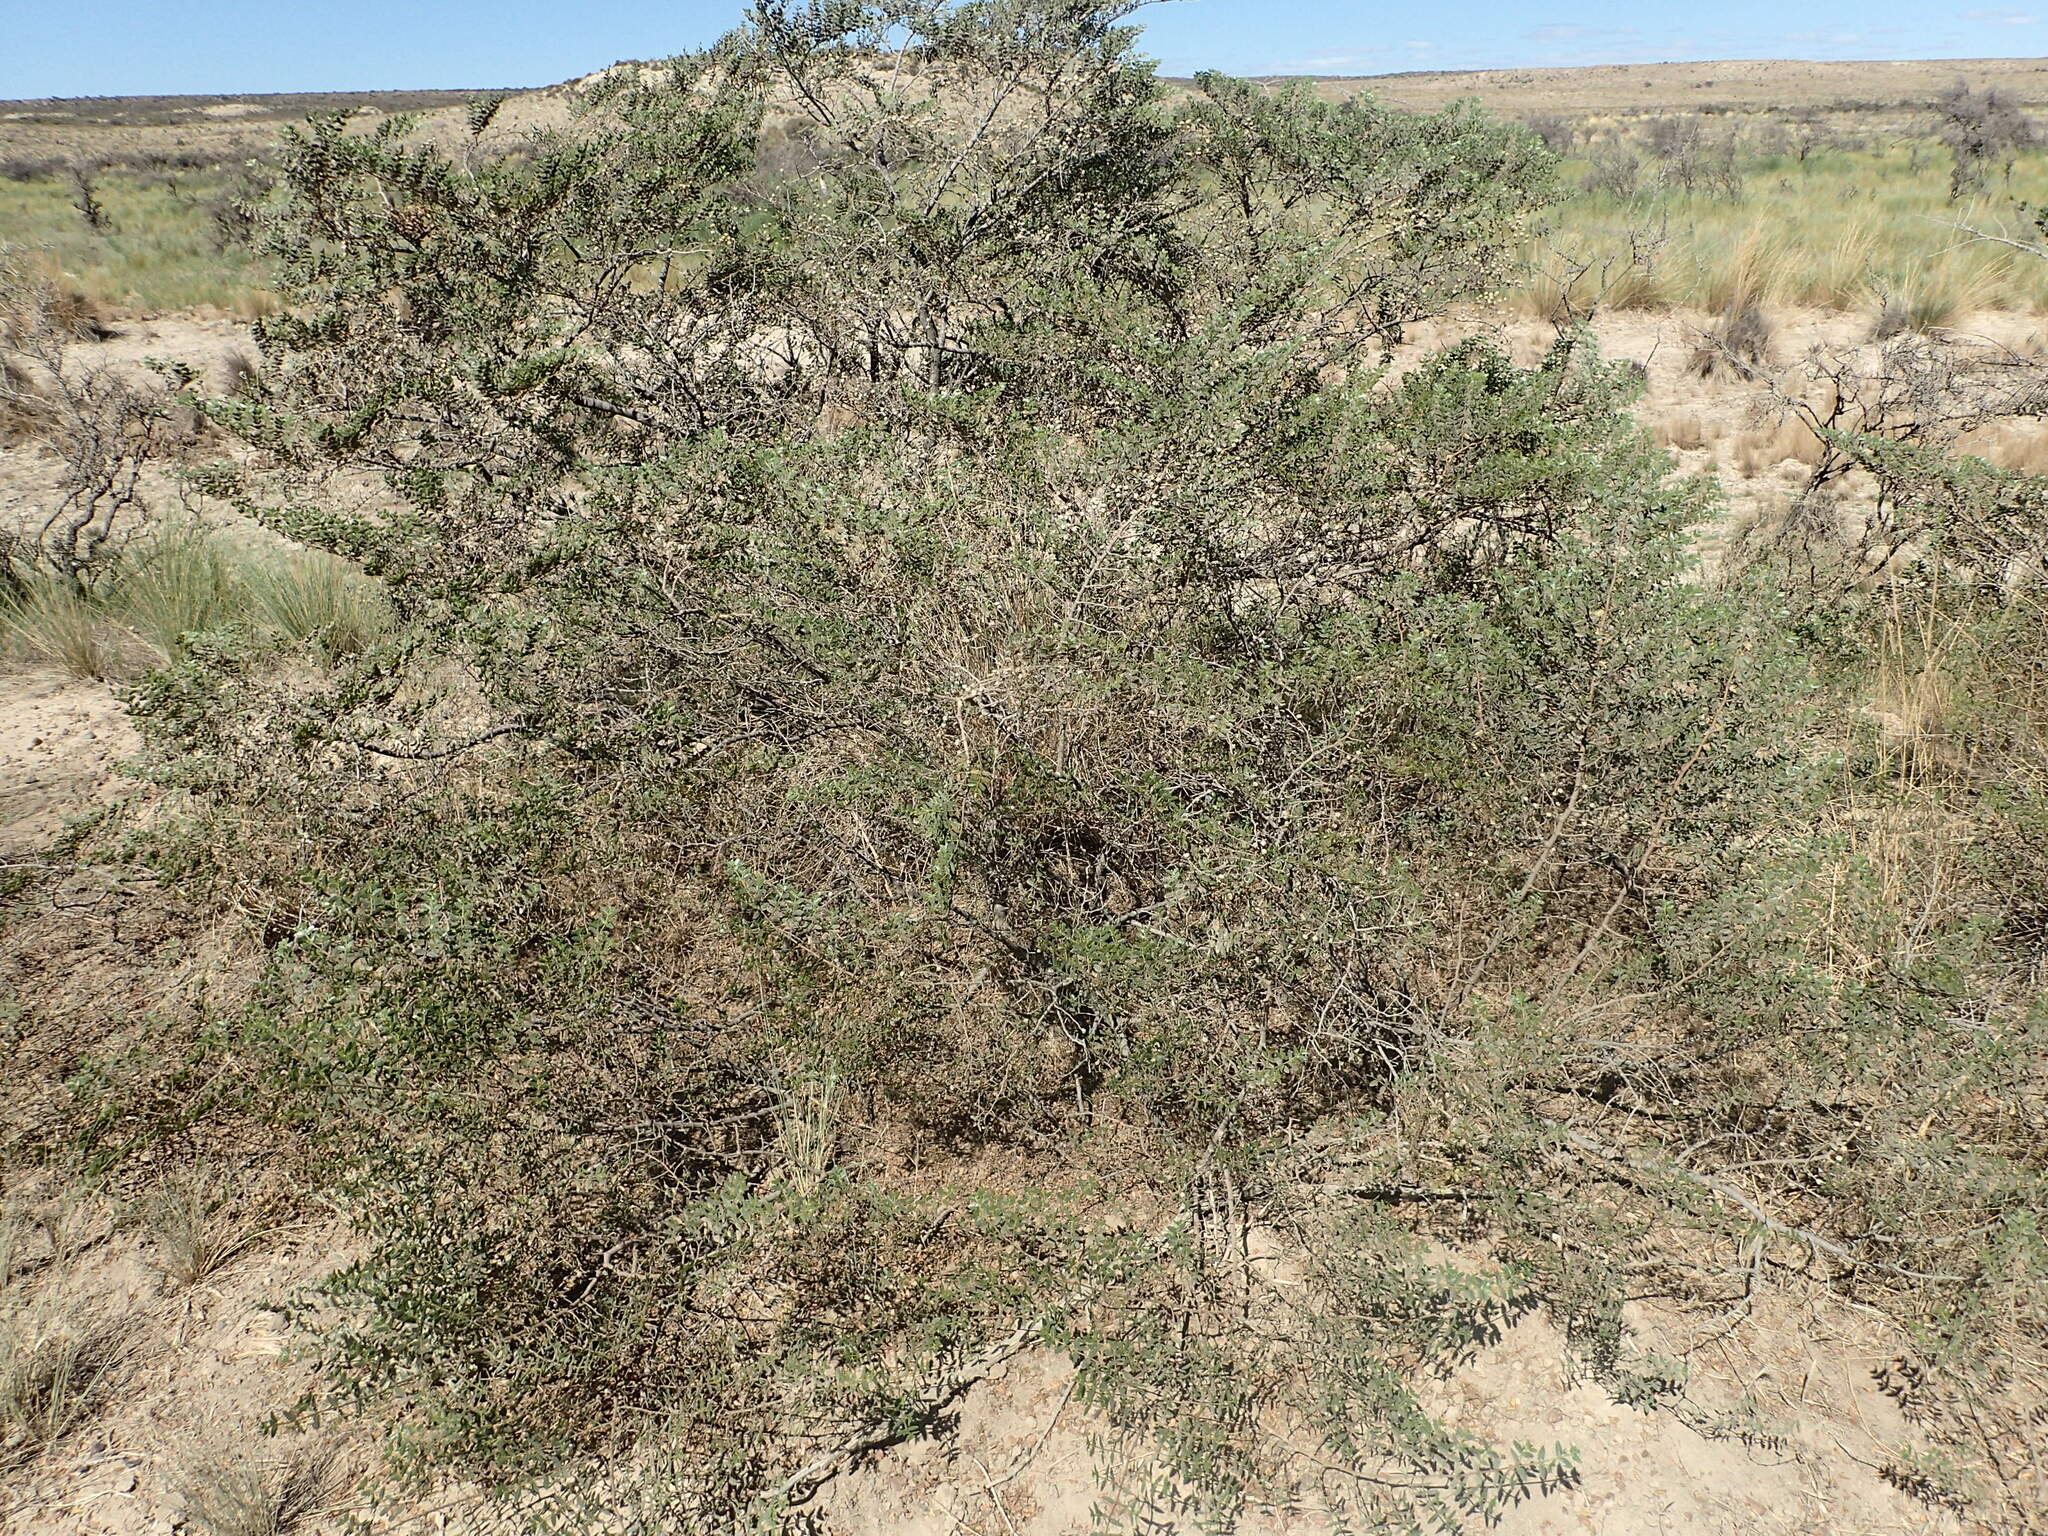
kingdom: Plantae
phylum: Tracheophyta
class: Magnoliopsida
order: Zygophyllales
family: Zygophyllaceae
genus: Larrea
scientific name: Larrea nitida
